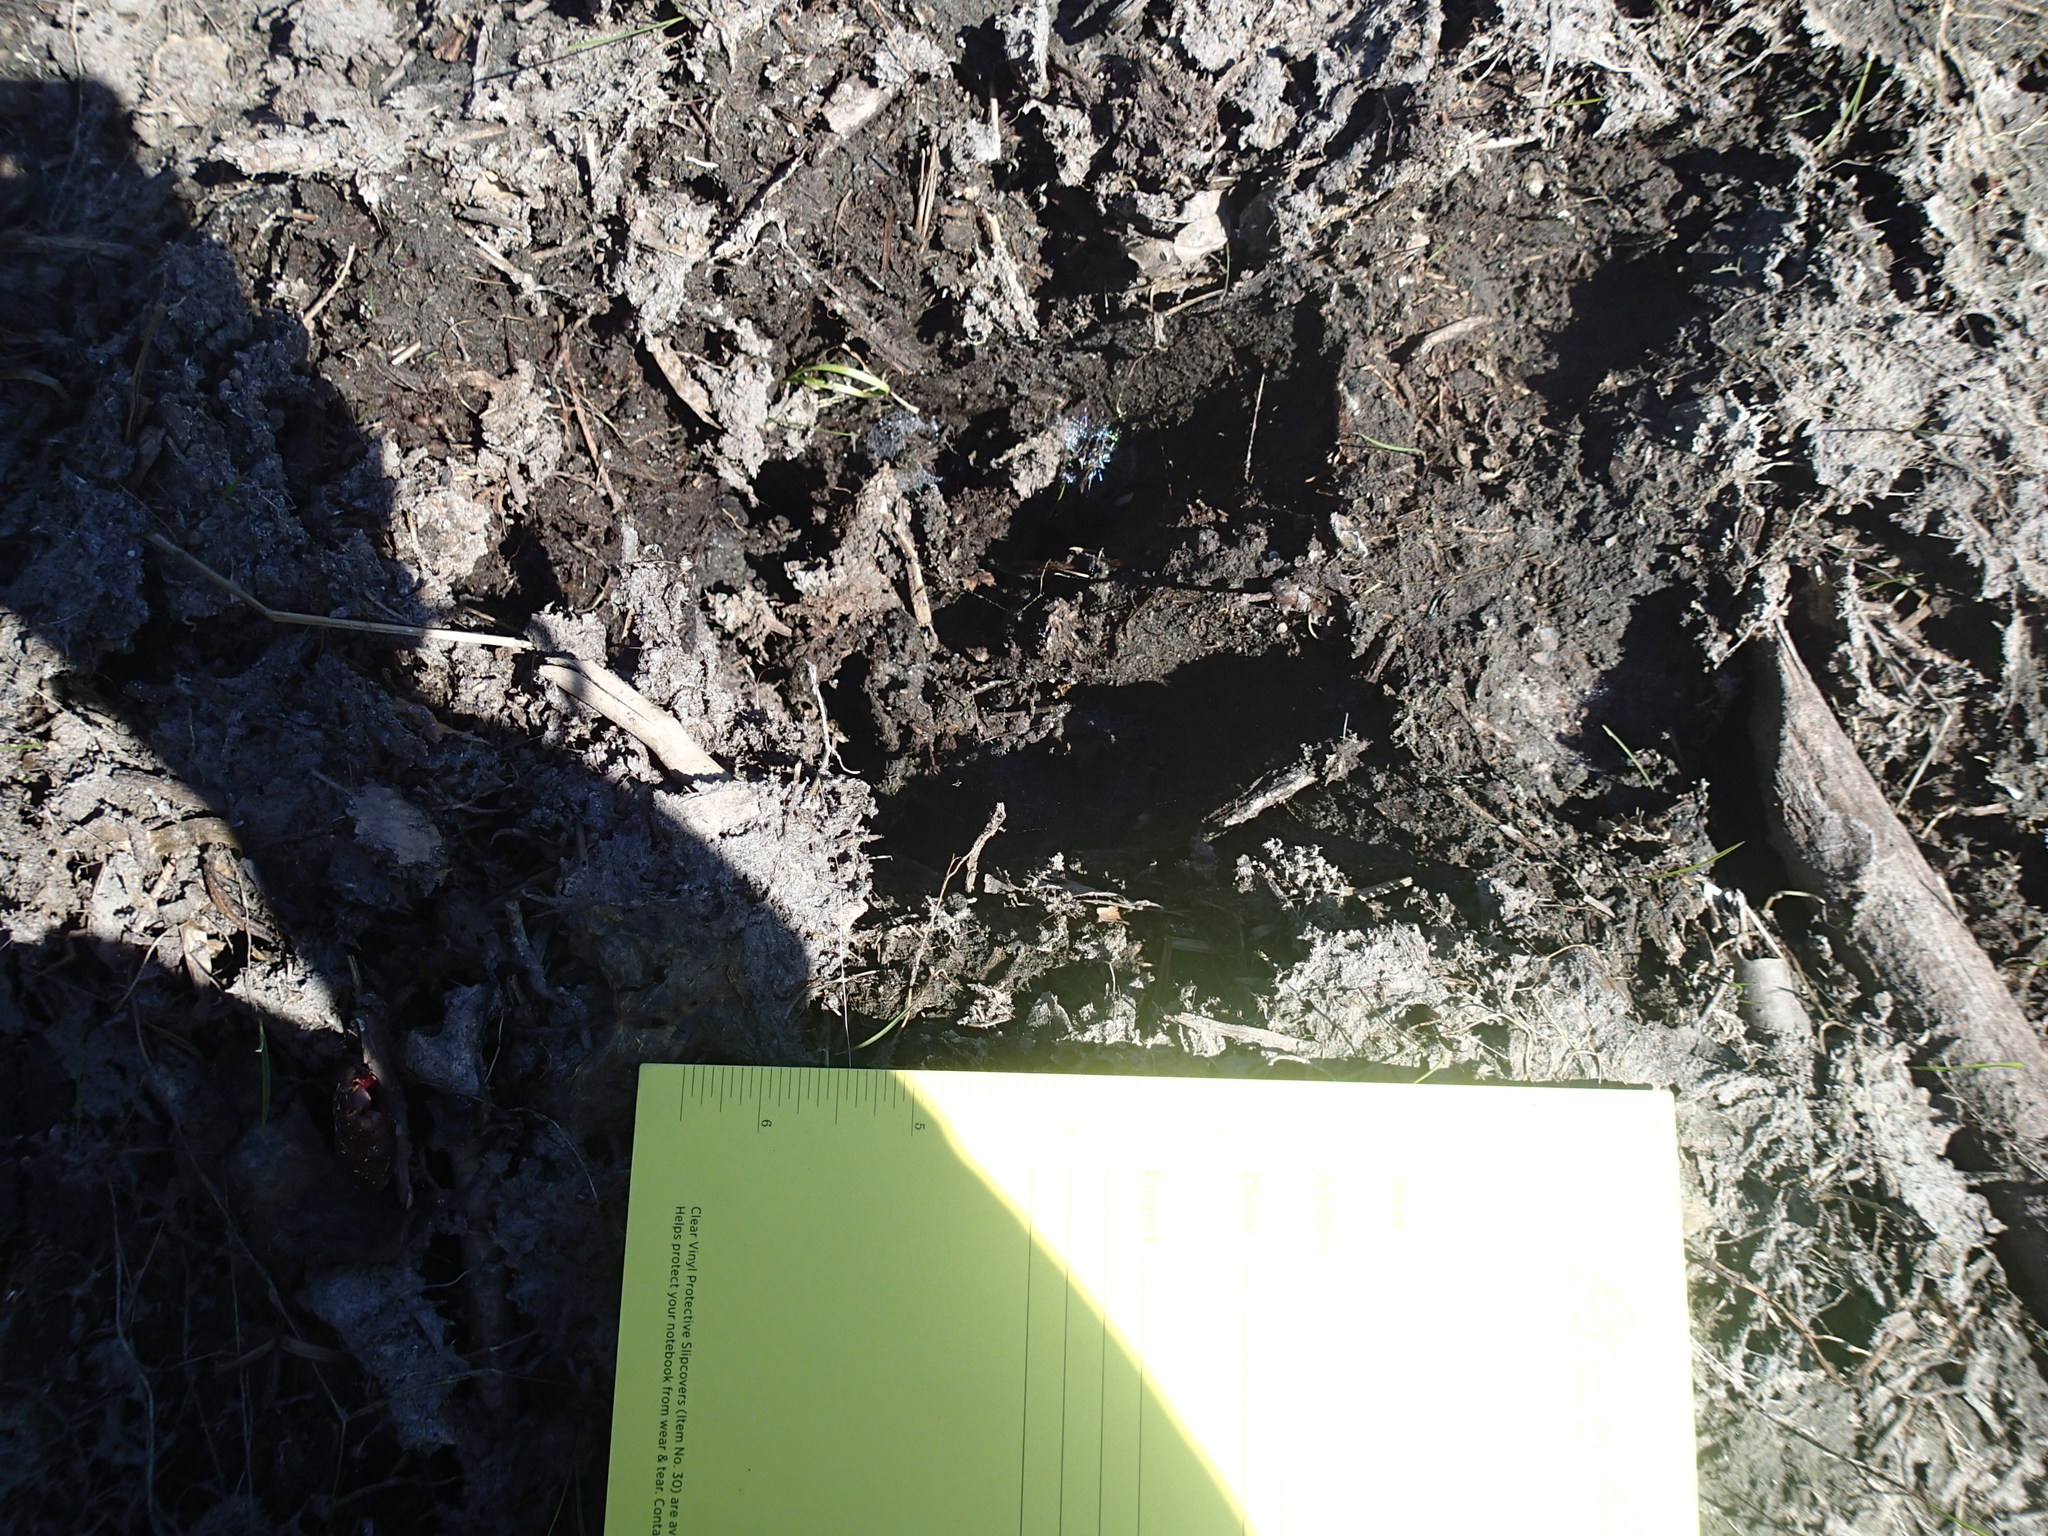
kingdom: Animalia
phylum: Chordata
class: Mammalia
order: Artiodactyla
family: Cervidae
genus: Alces
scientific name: Alces alces
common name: Moose
